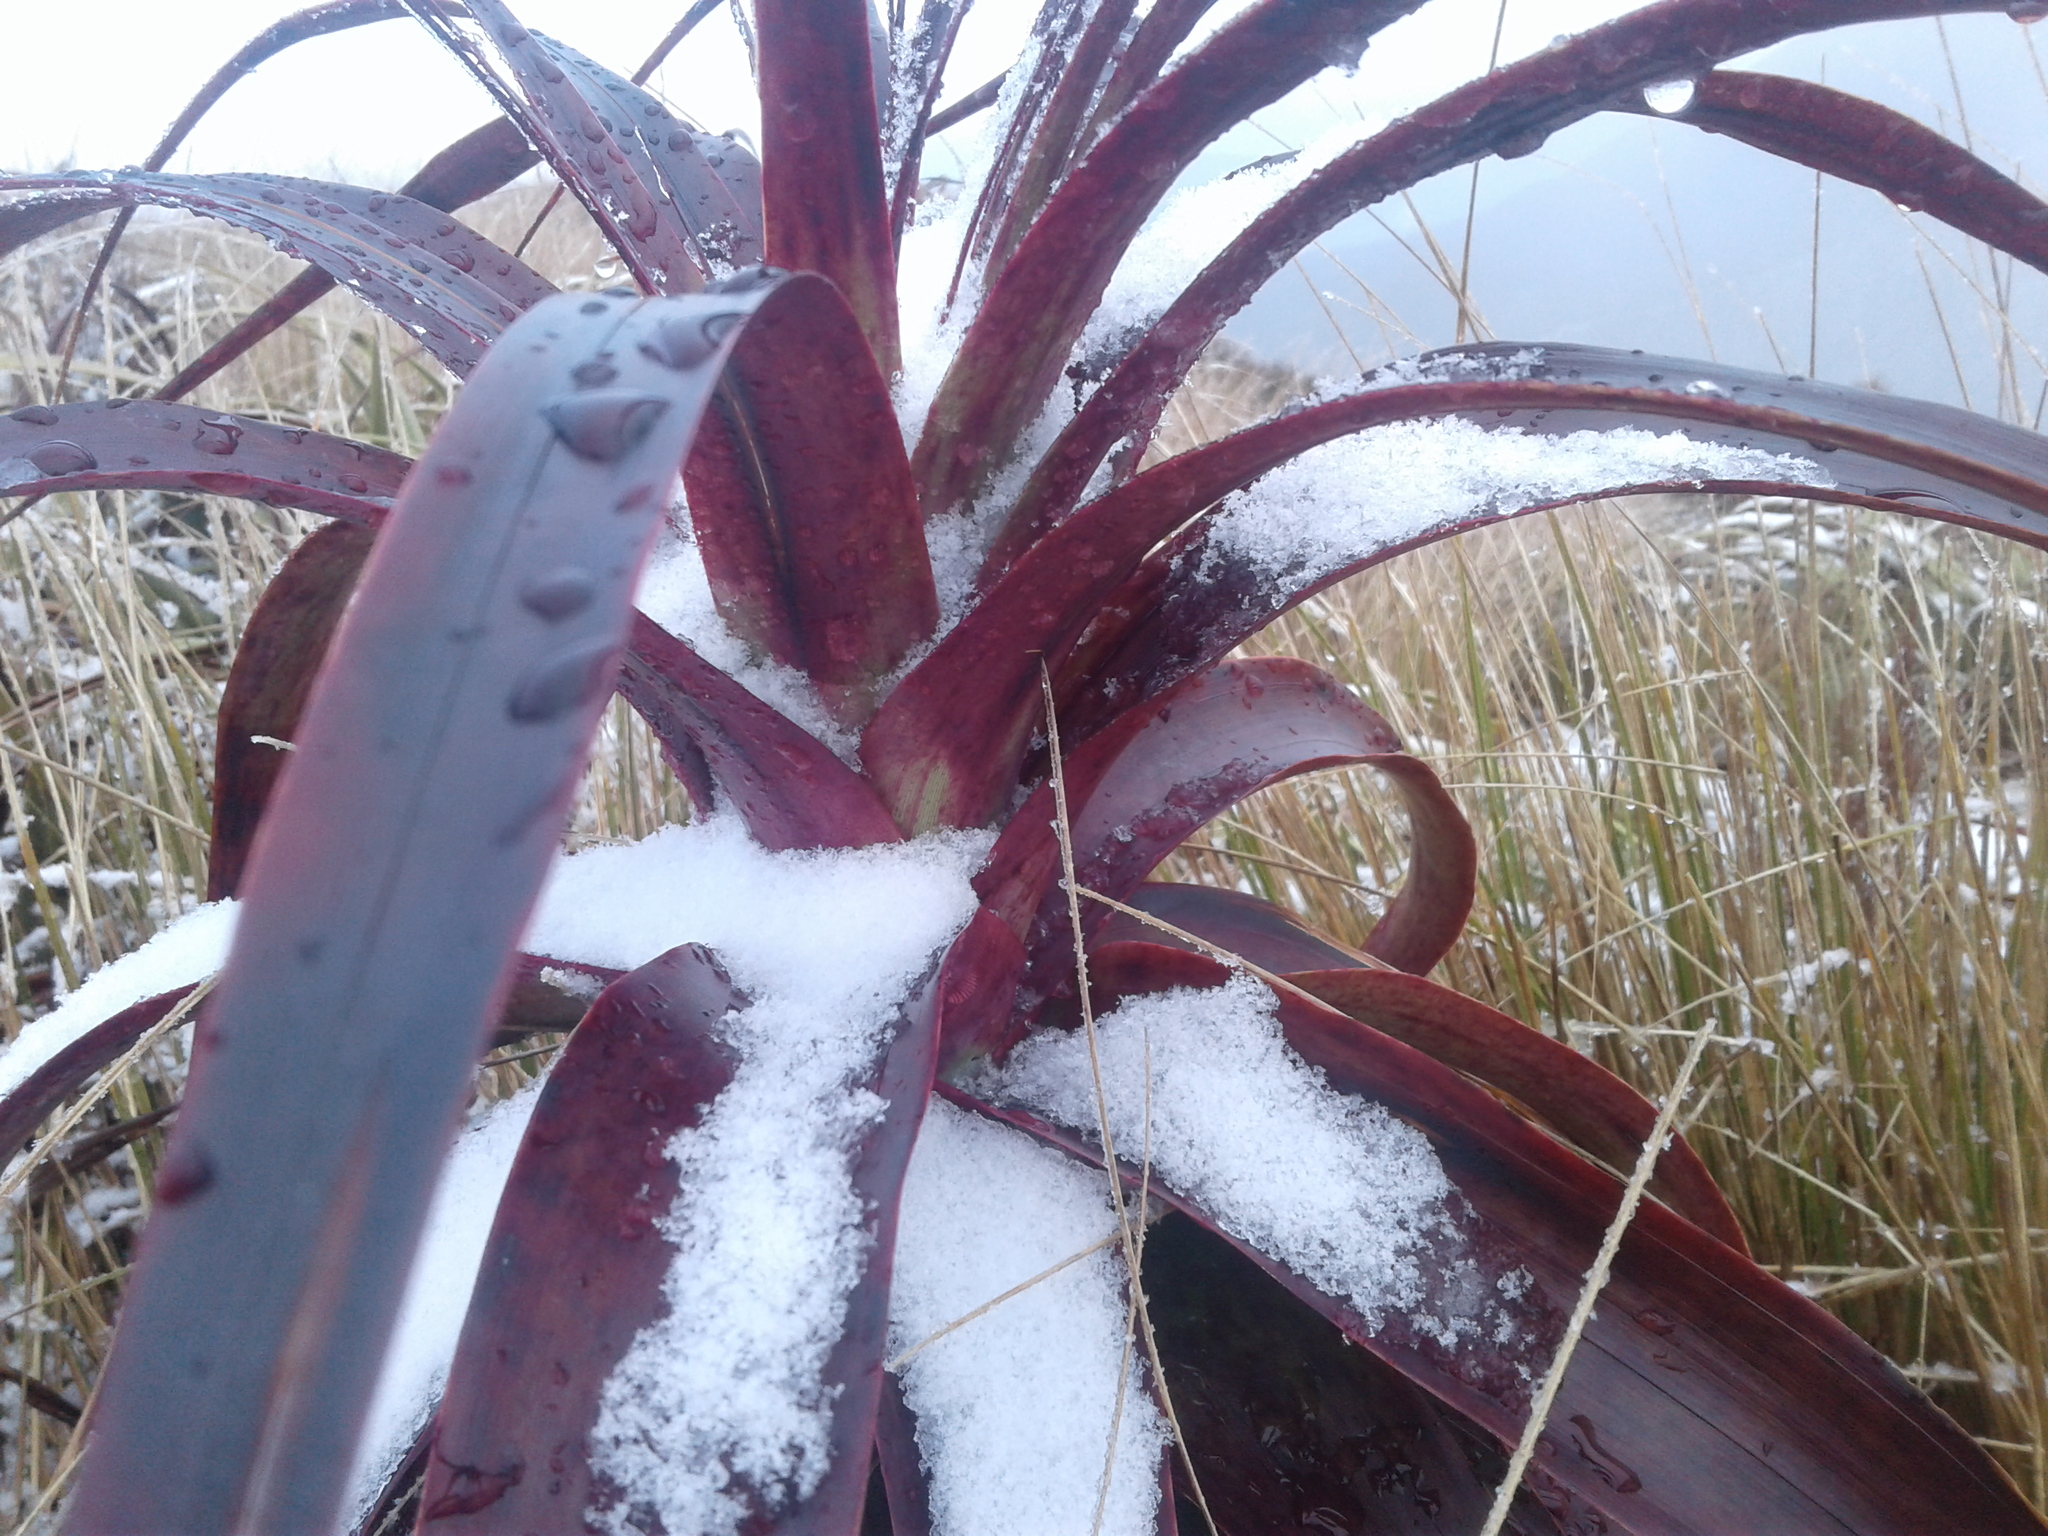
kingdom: Plantae
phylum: Tracheophyta
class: Magnoliopsida
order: Ericales
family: Ericaceae
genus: Dracophyllum
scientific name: Dracophyllum traversii
